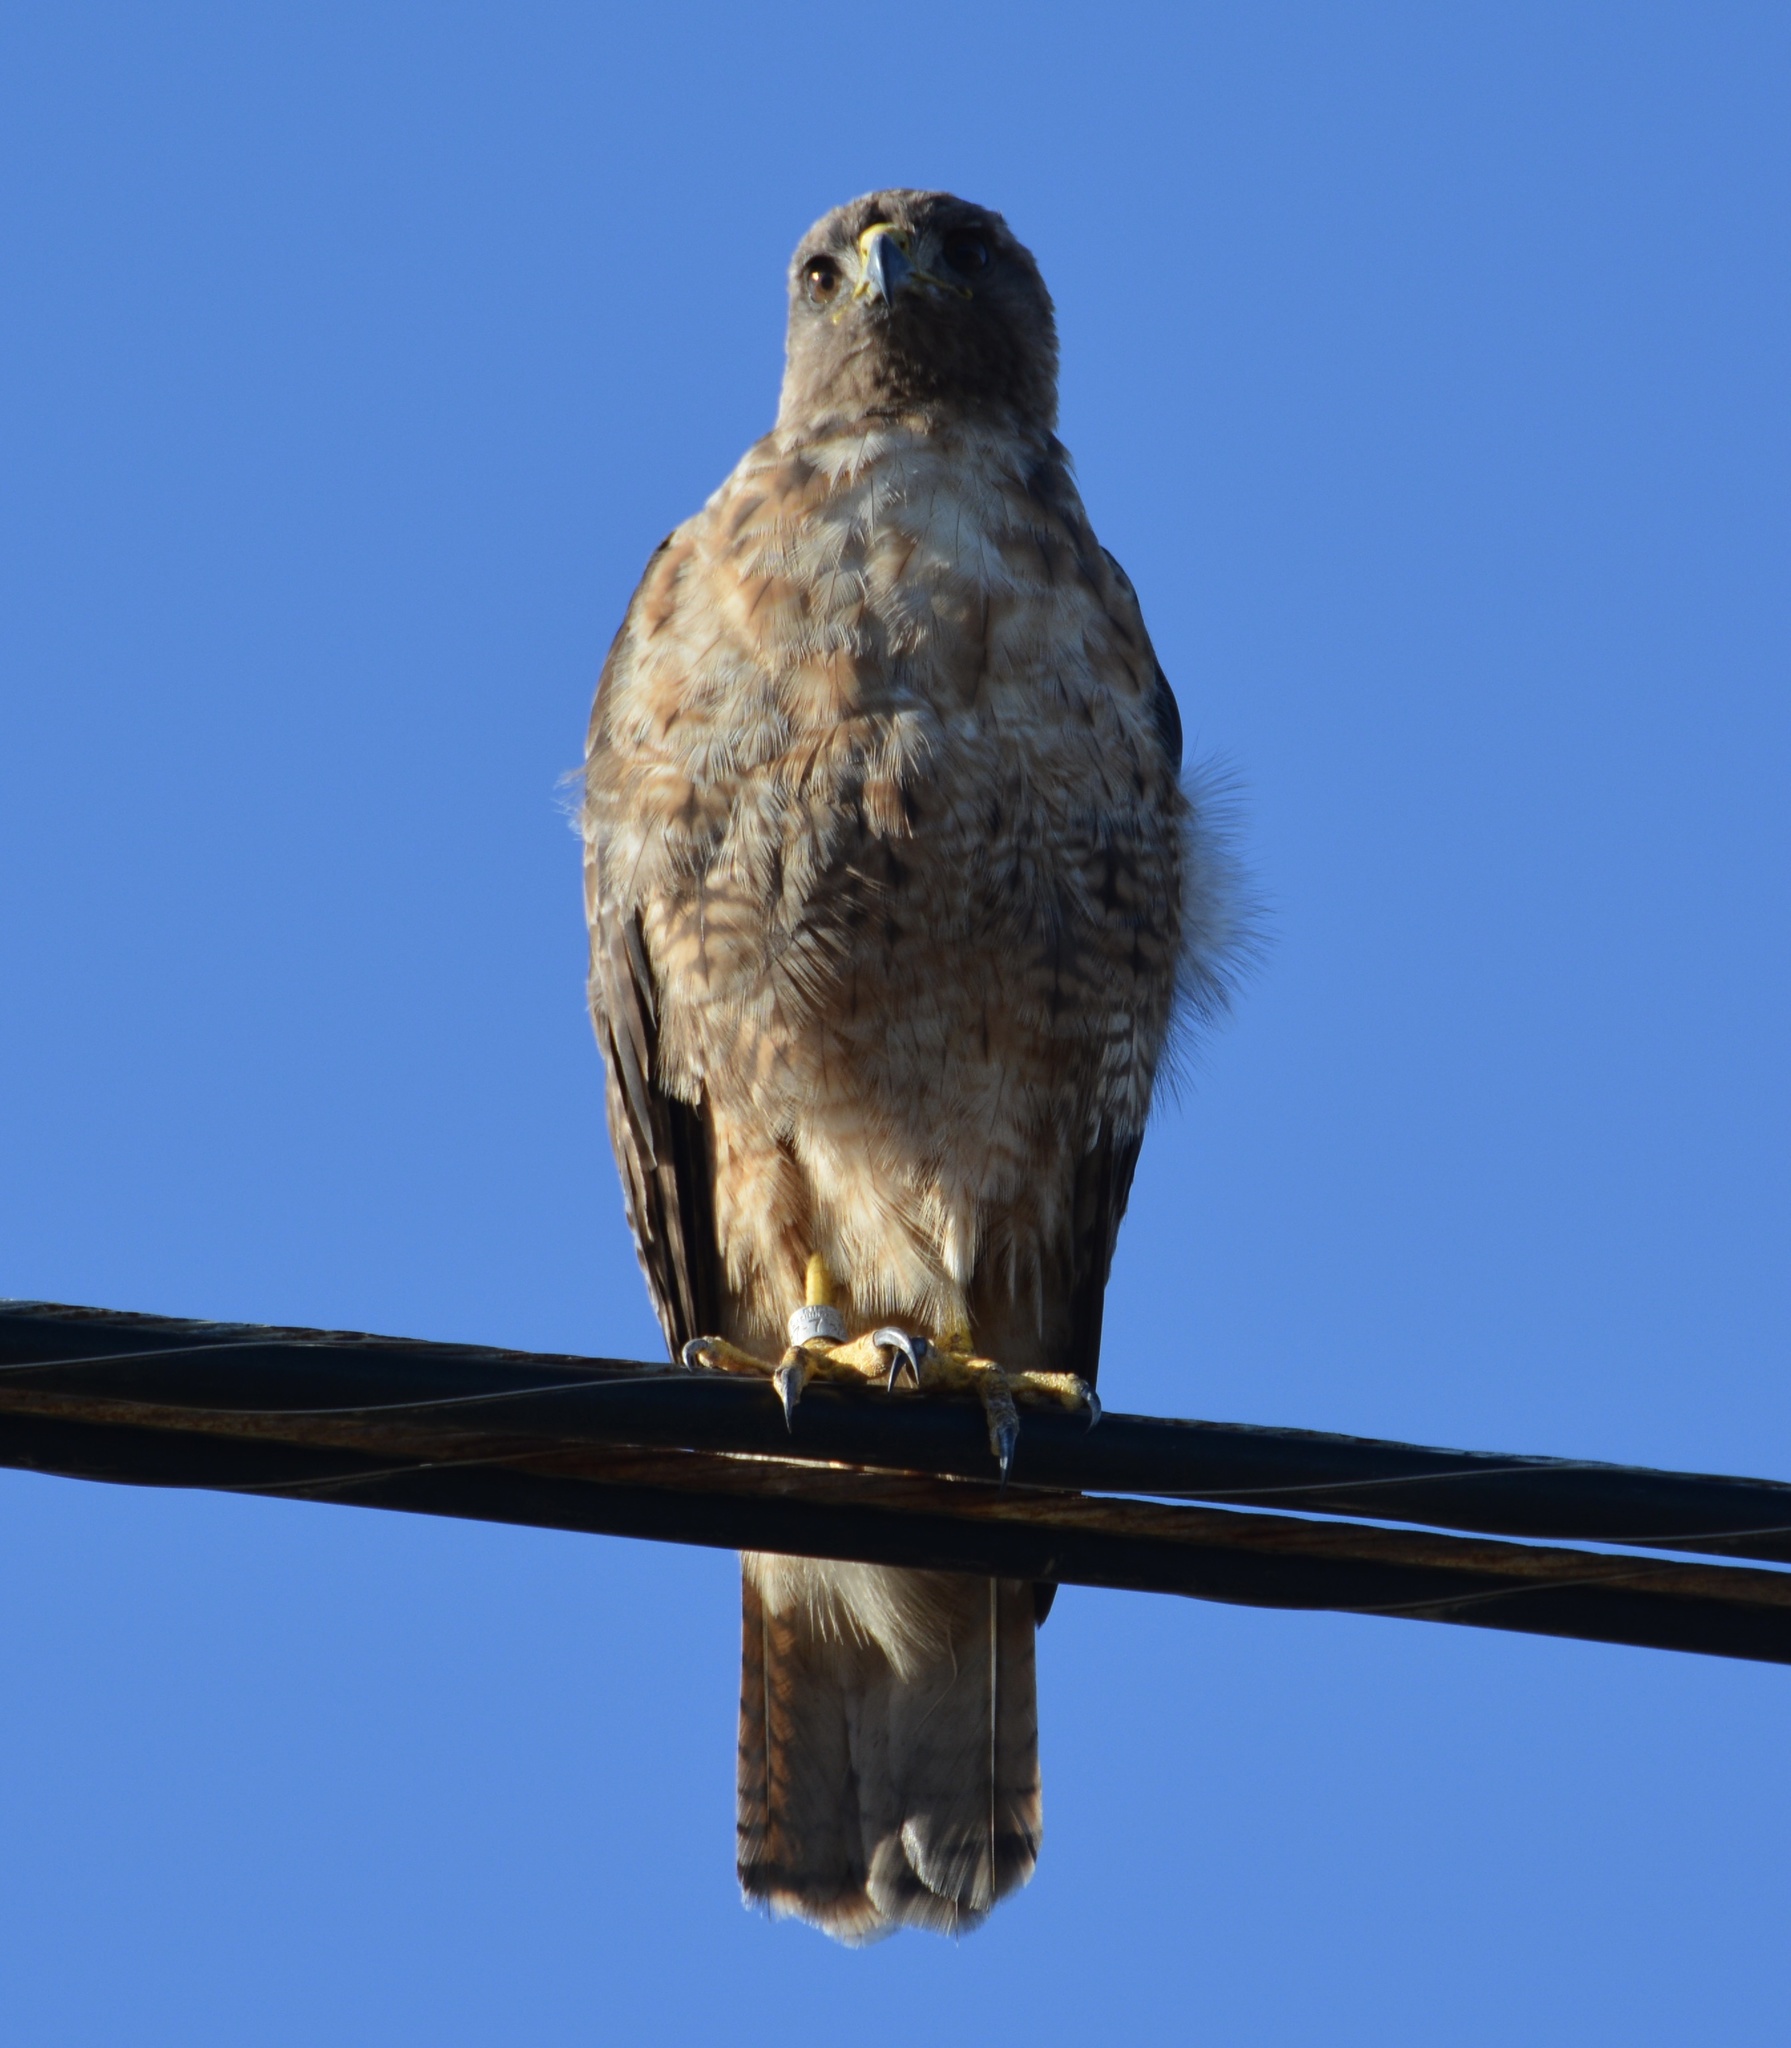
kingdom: Animalia
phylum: Chordata
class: Aves
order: Accipitriformes
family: Accipitridae
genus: Buteo
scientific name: Buteo jamaicensis
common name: Red-tailed hawk
